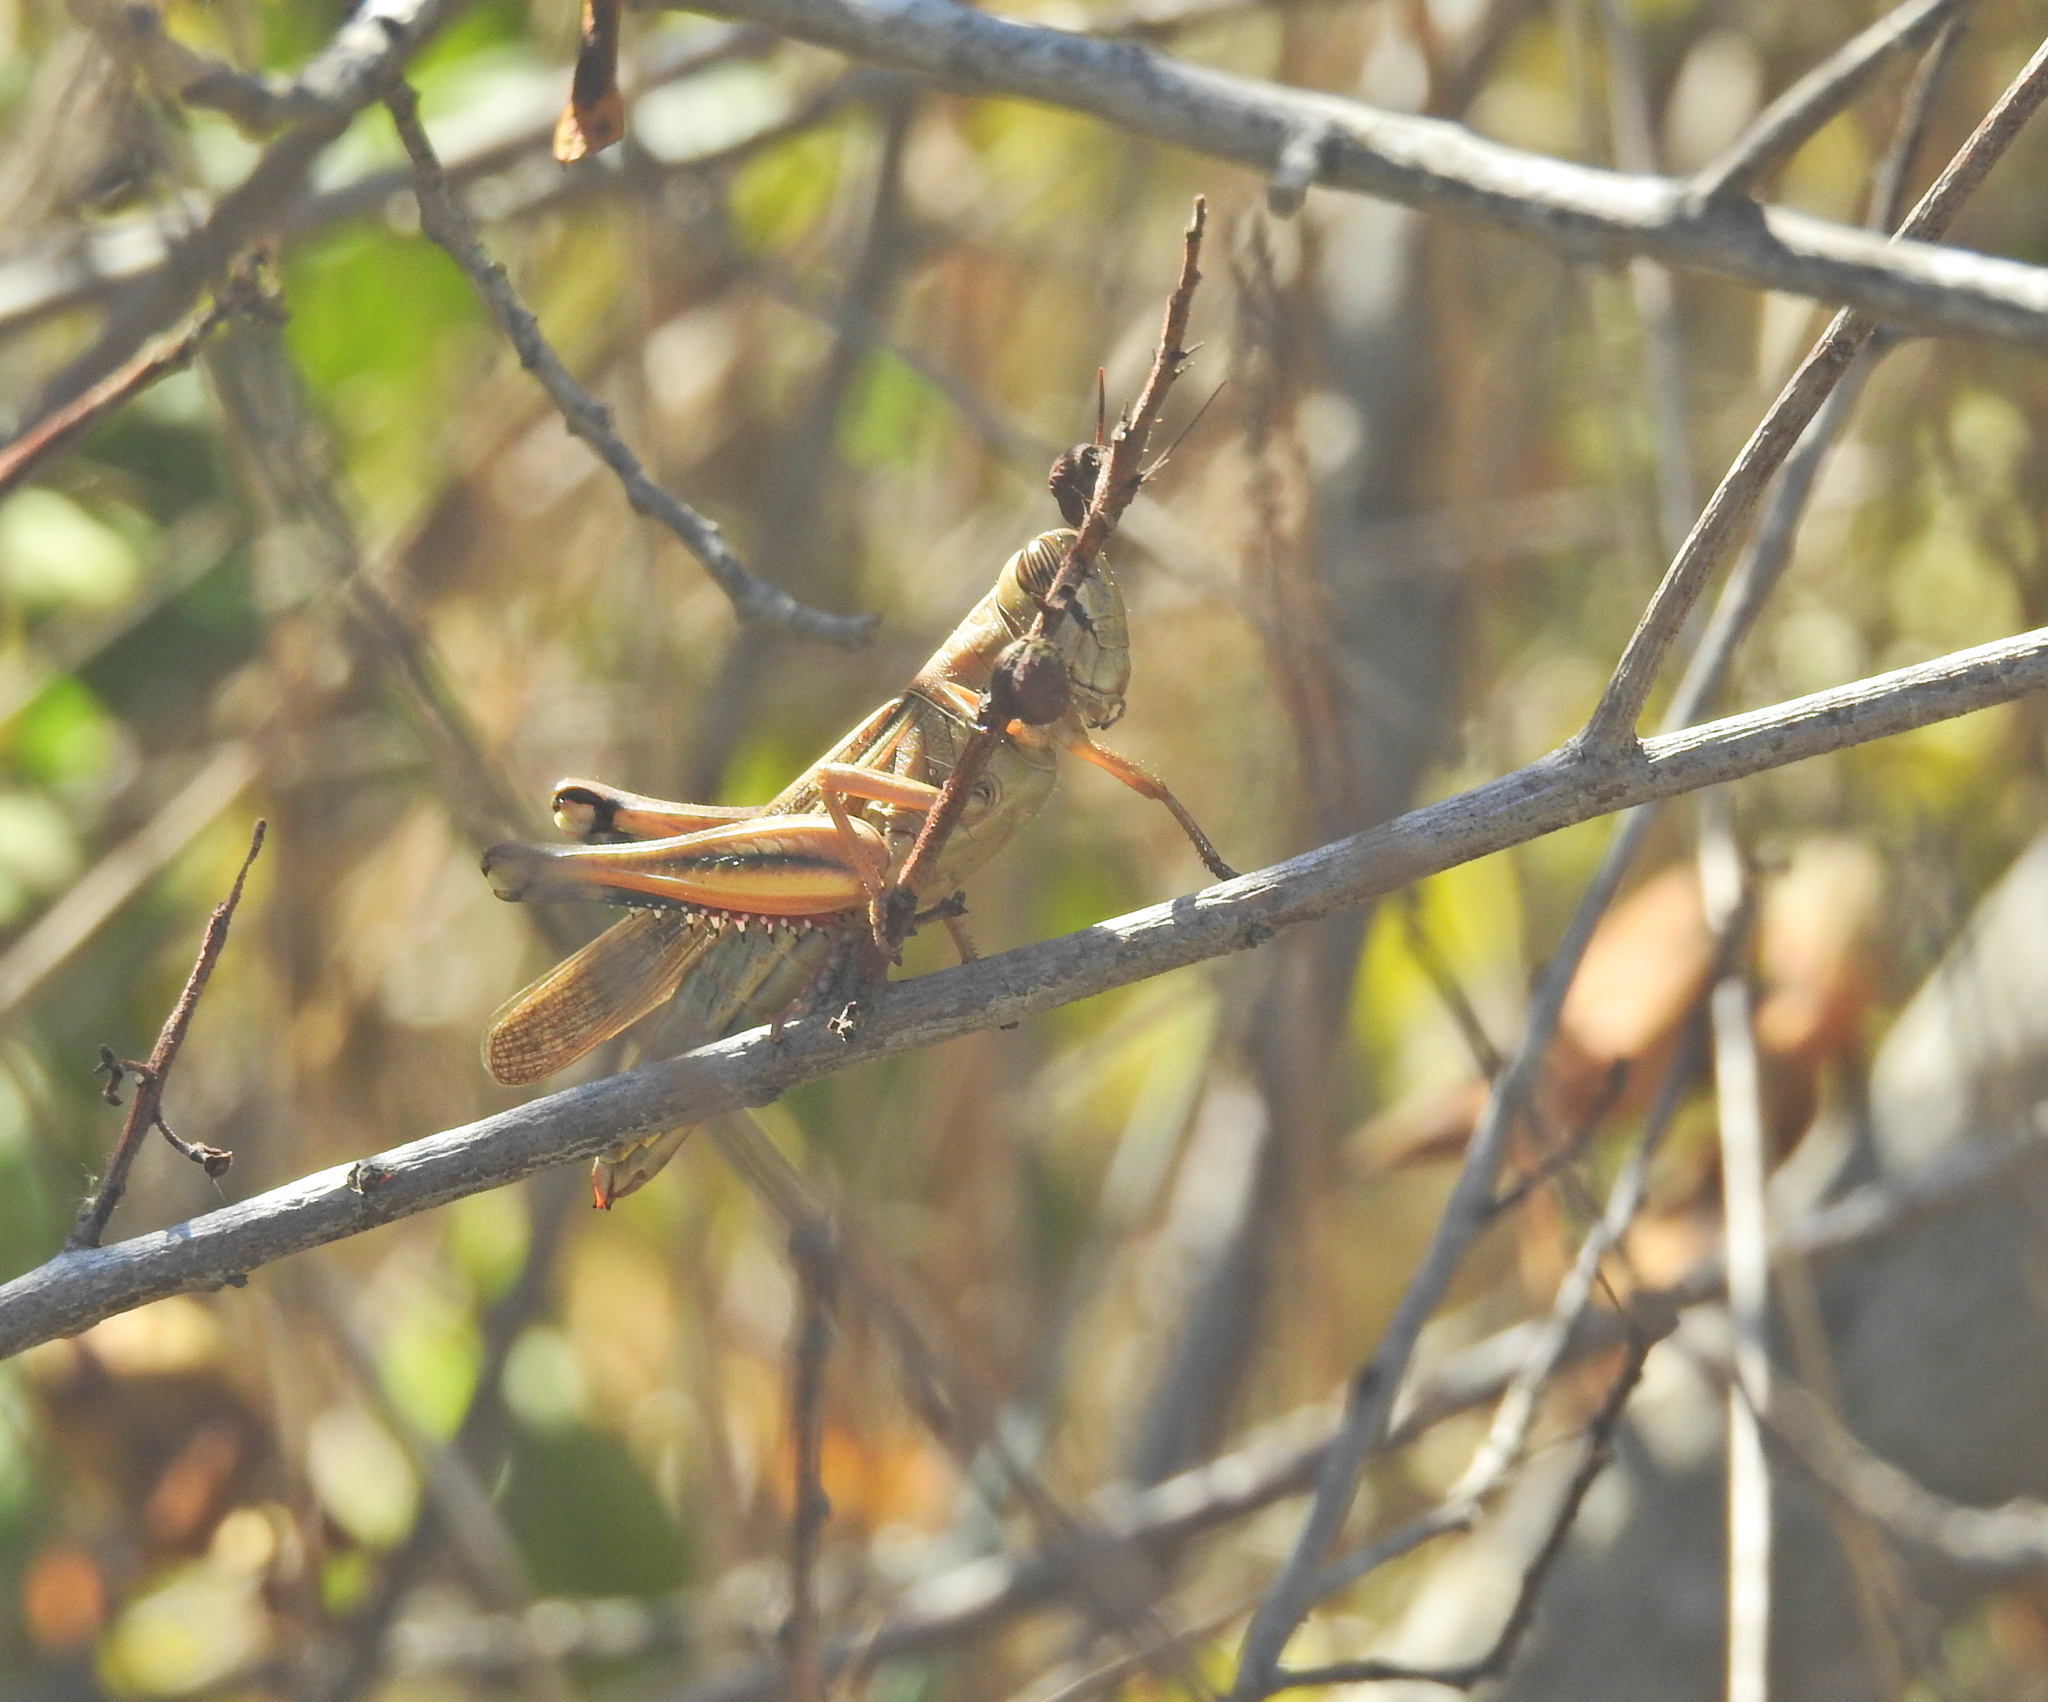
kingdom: Animalia
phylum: Arthropoda
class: Insecta
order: Orthoptera
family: Acrididae
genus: Eyprepocnemis
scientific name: Eyprepocnemis plorans
